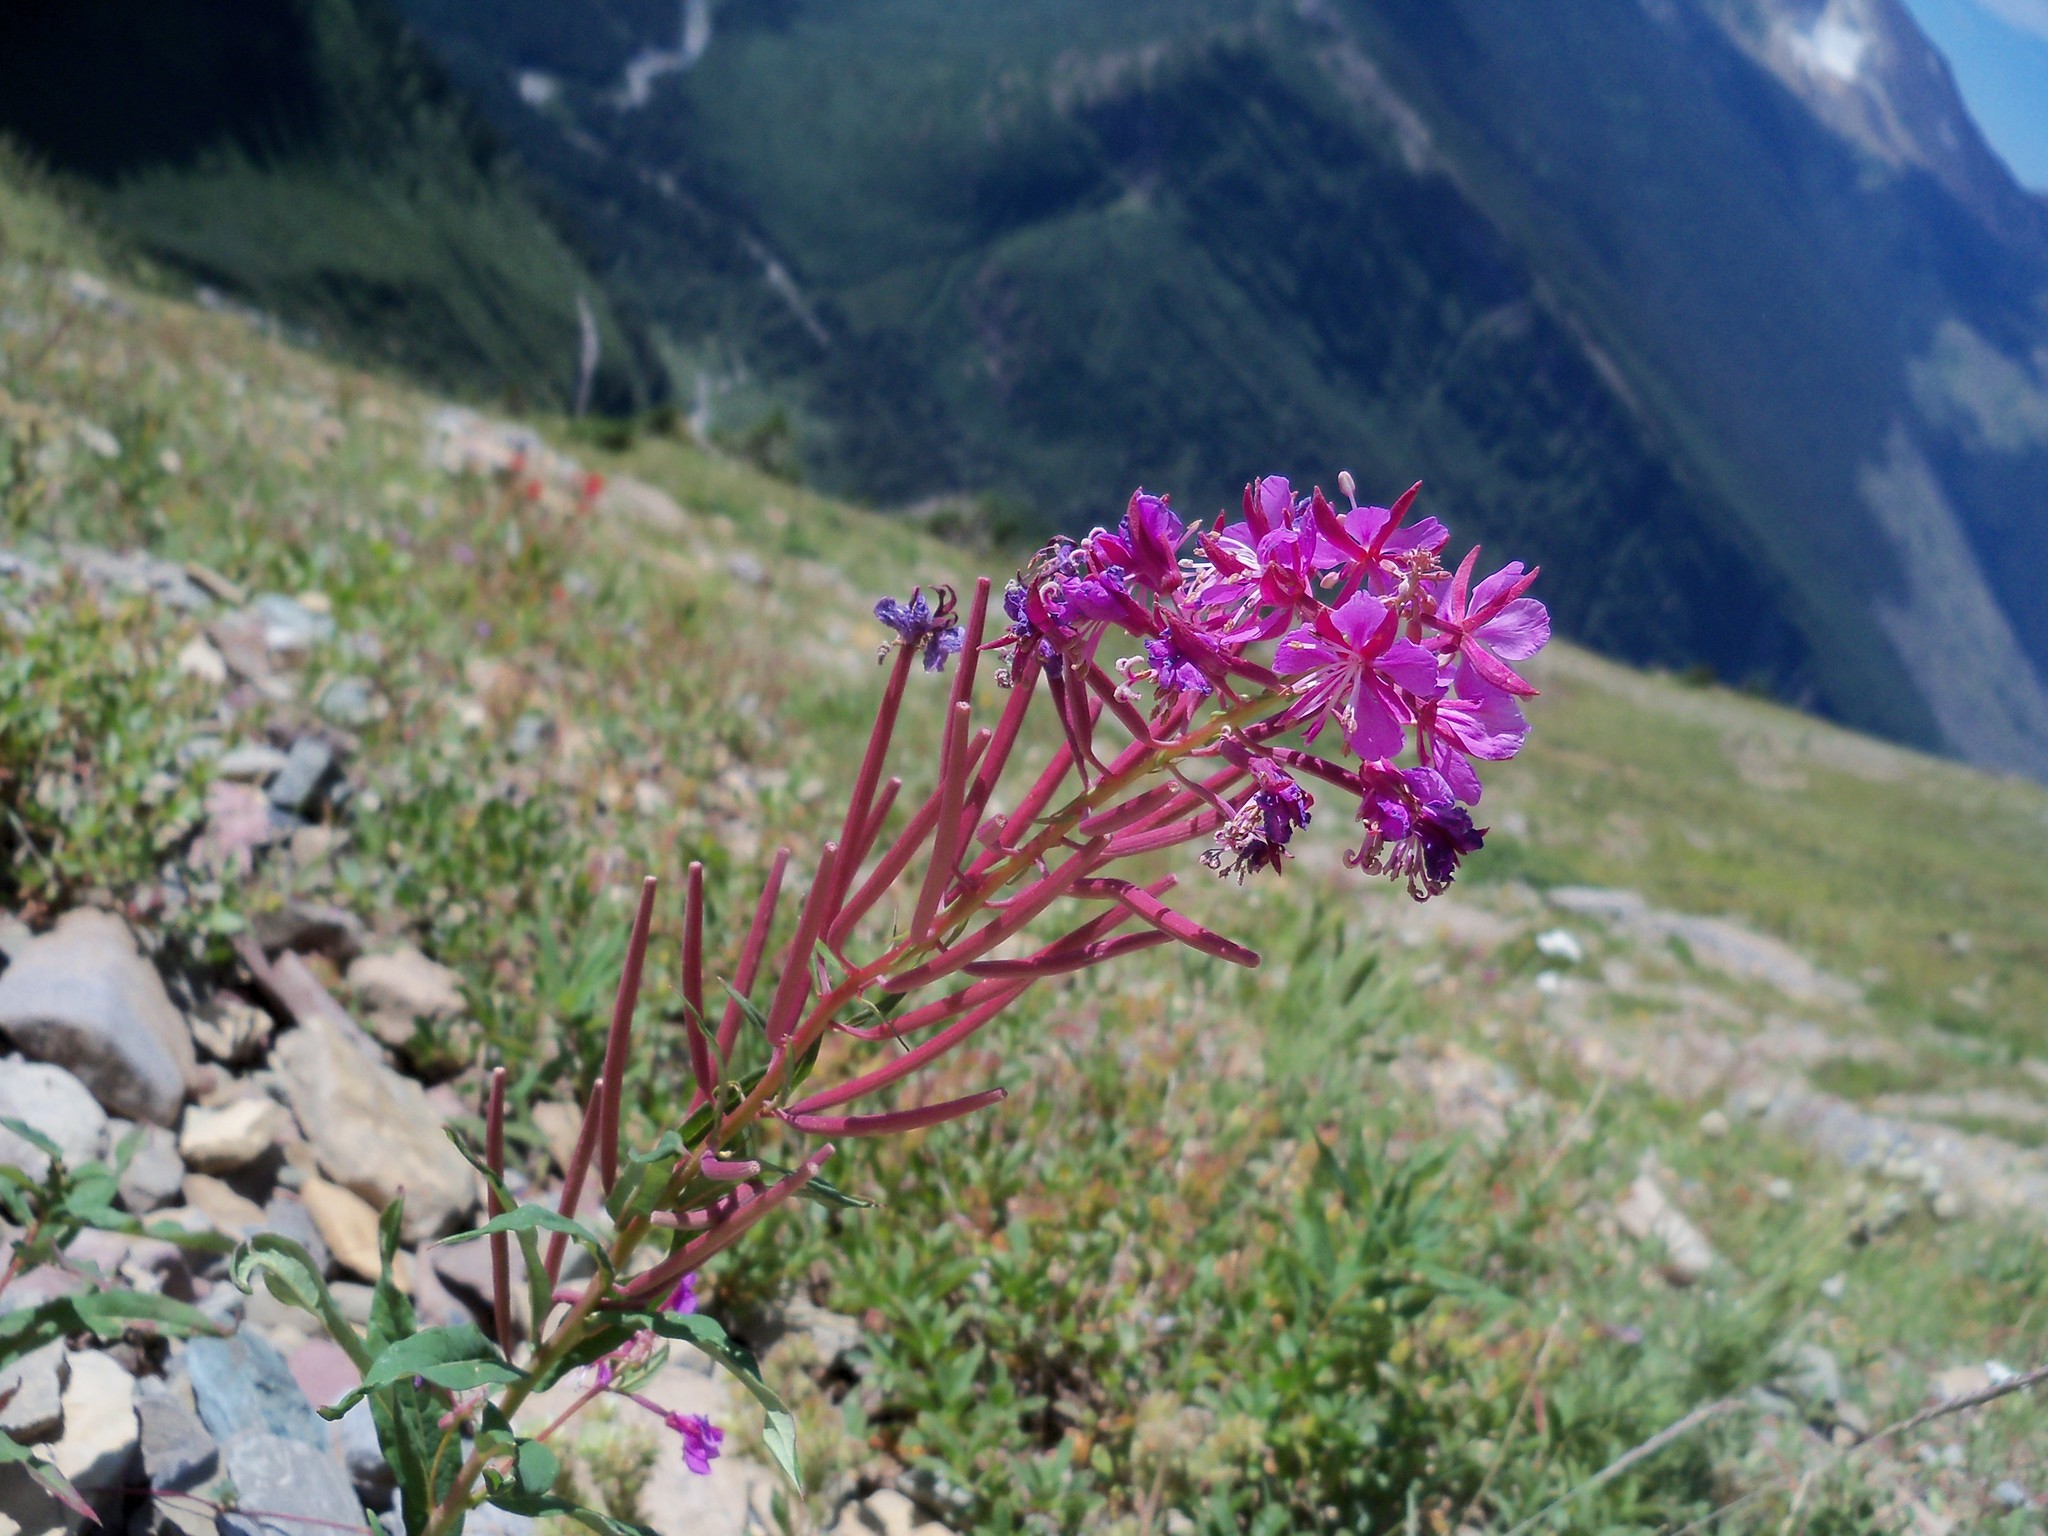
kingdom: Plantae
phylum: Tracheophyta
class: Magnoliopsida
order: Myrtales
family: Onagraceae
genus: Chamaenerion
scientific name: Chamaenerion angustifolium
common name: Fireweed
